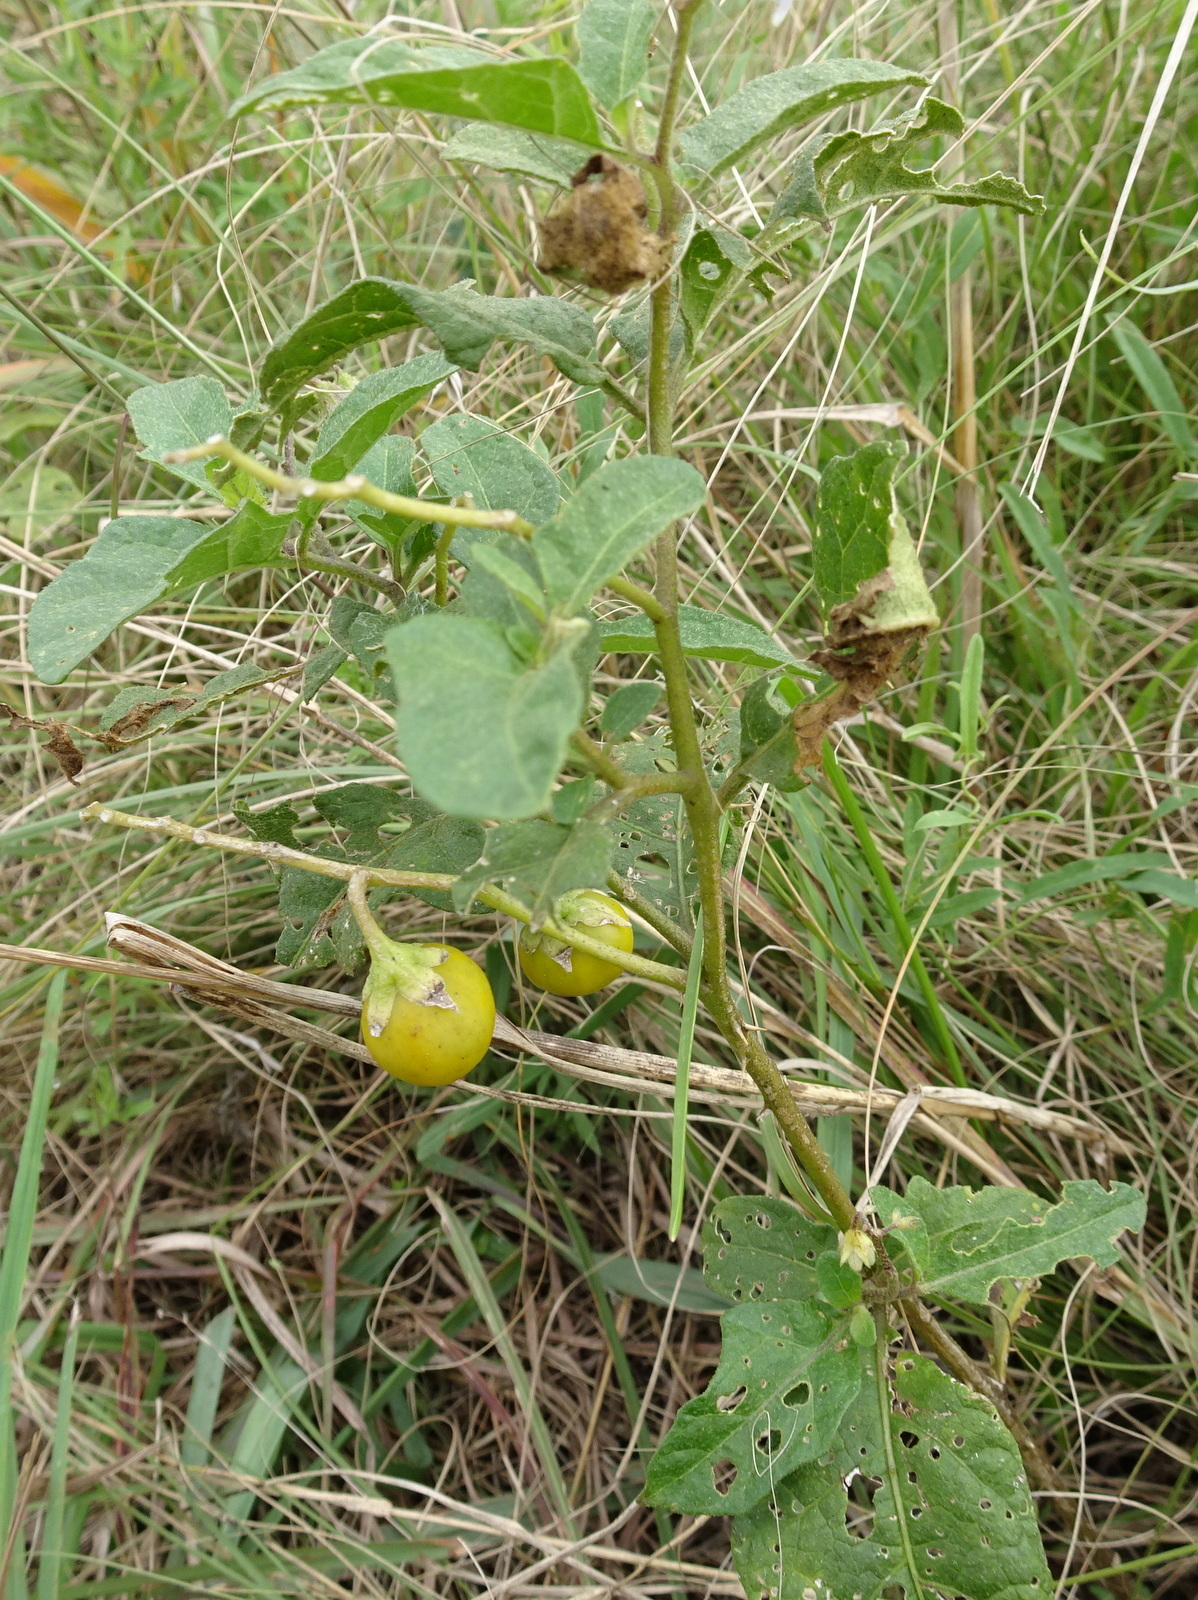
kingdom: Plantae
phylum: Tracheophyta
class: Magnoliopsida
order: Solanales
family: Solanaceae
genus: Solanum
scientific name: Solanum carolinense
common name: Horse-nettle
